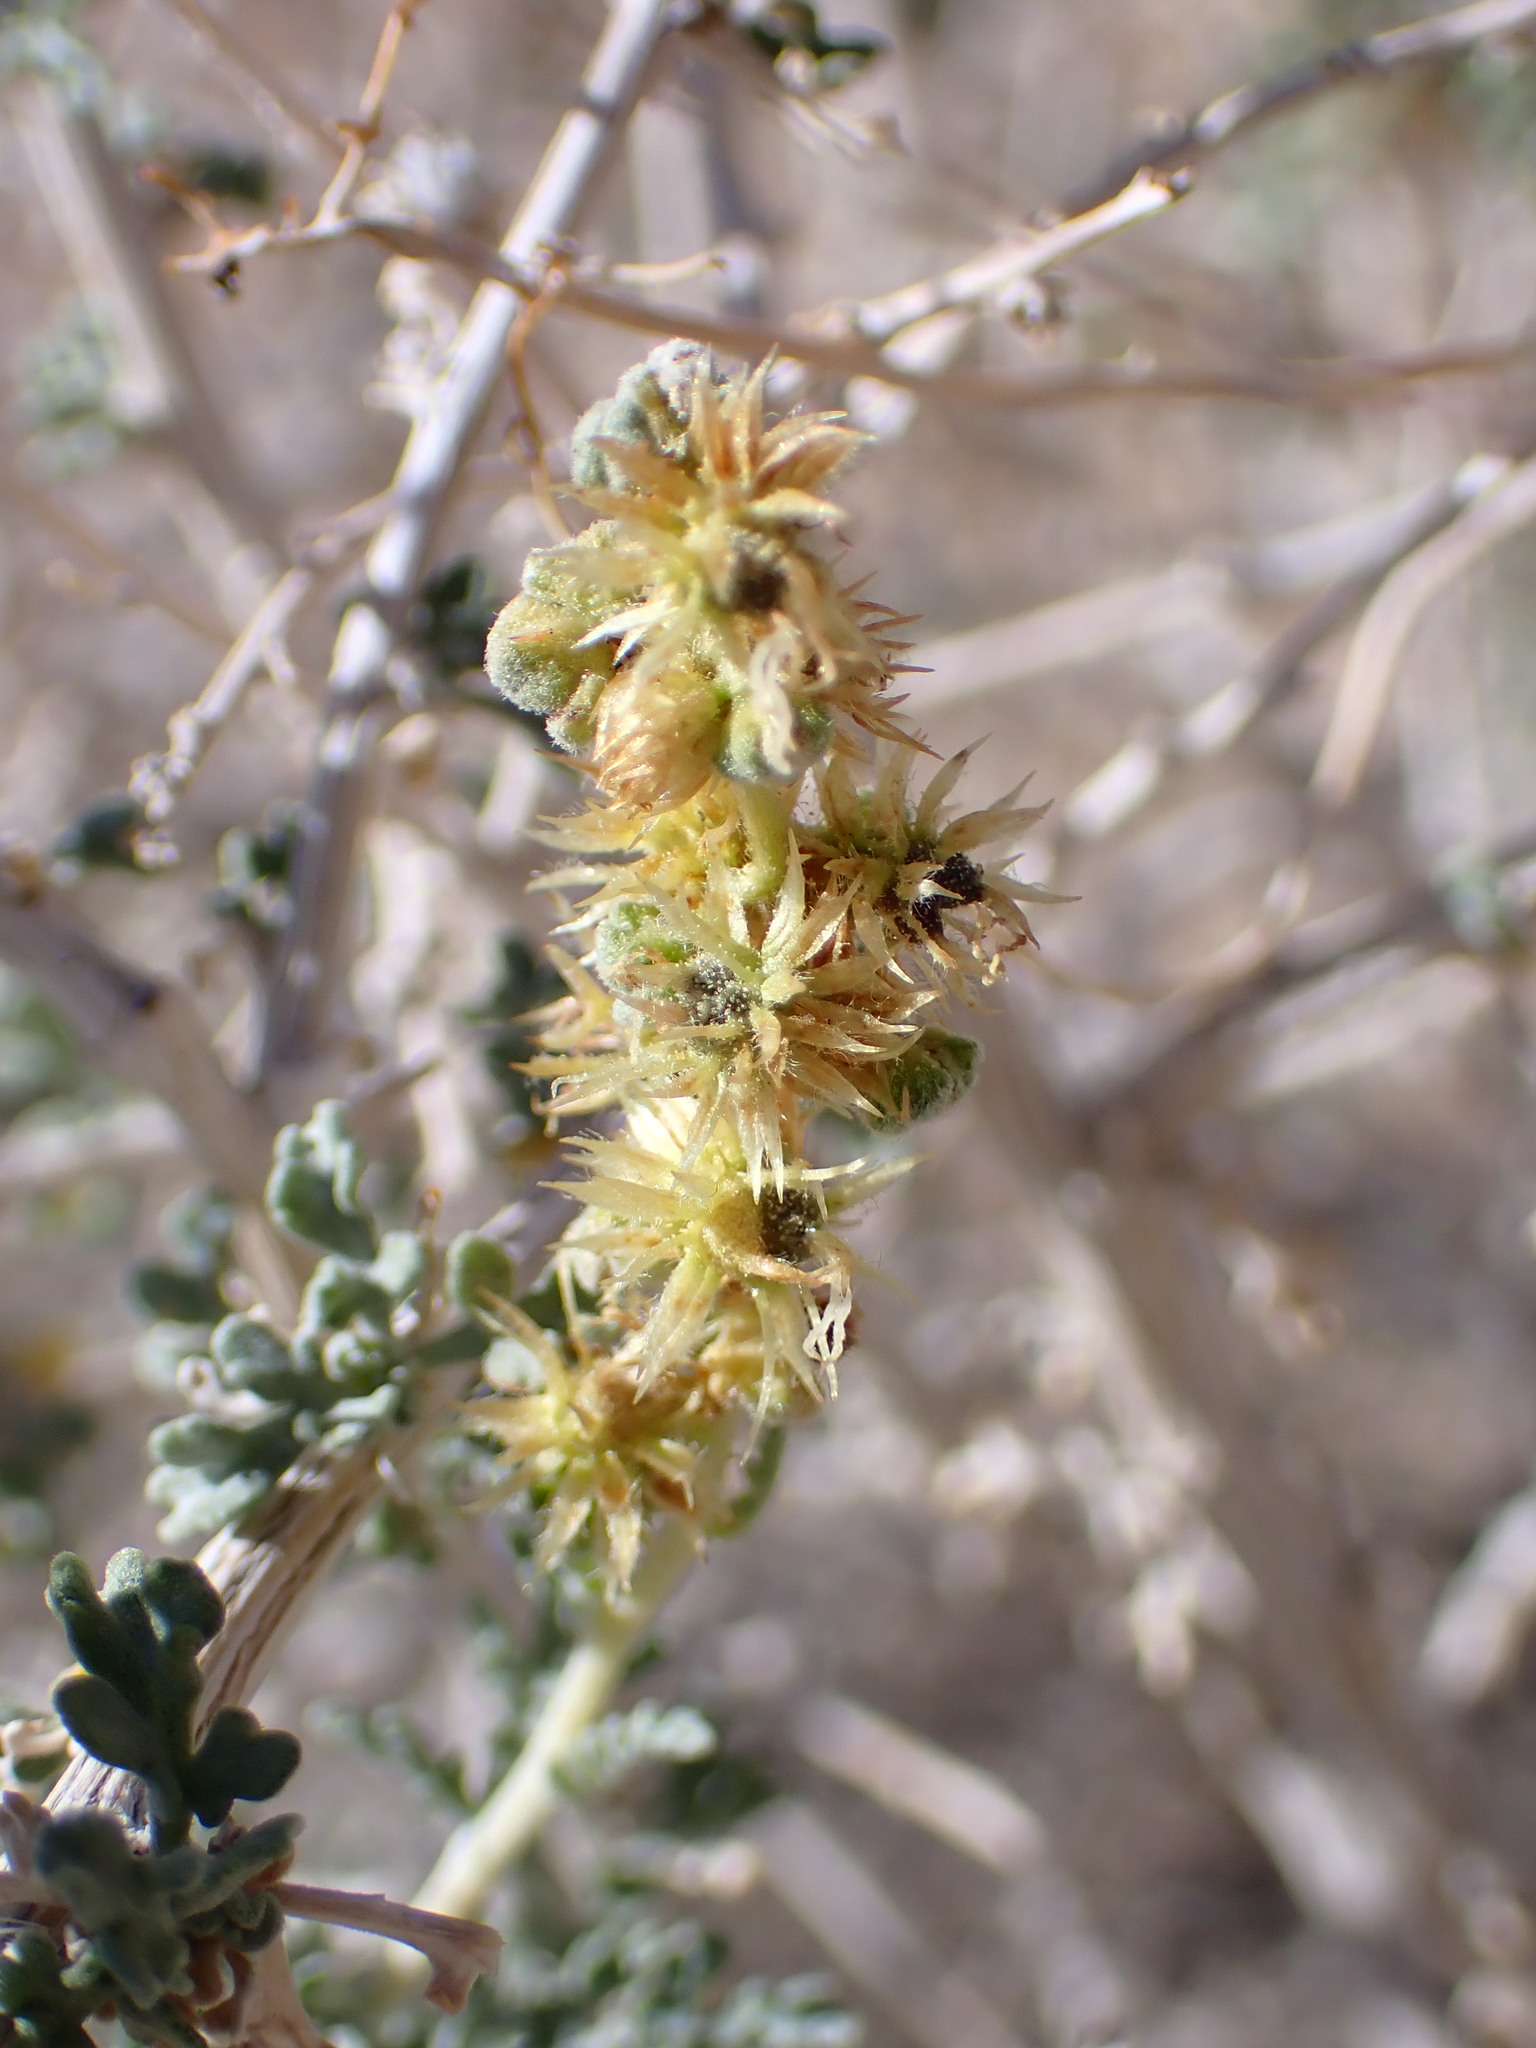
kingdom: Plantae
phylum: Tracheophyta
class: Magnoliopsida
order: Asterales
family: Asteraceae
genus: Ambrosia
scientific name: Ambrosia dumosa
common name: Bur-sage
